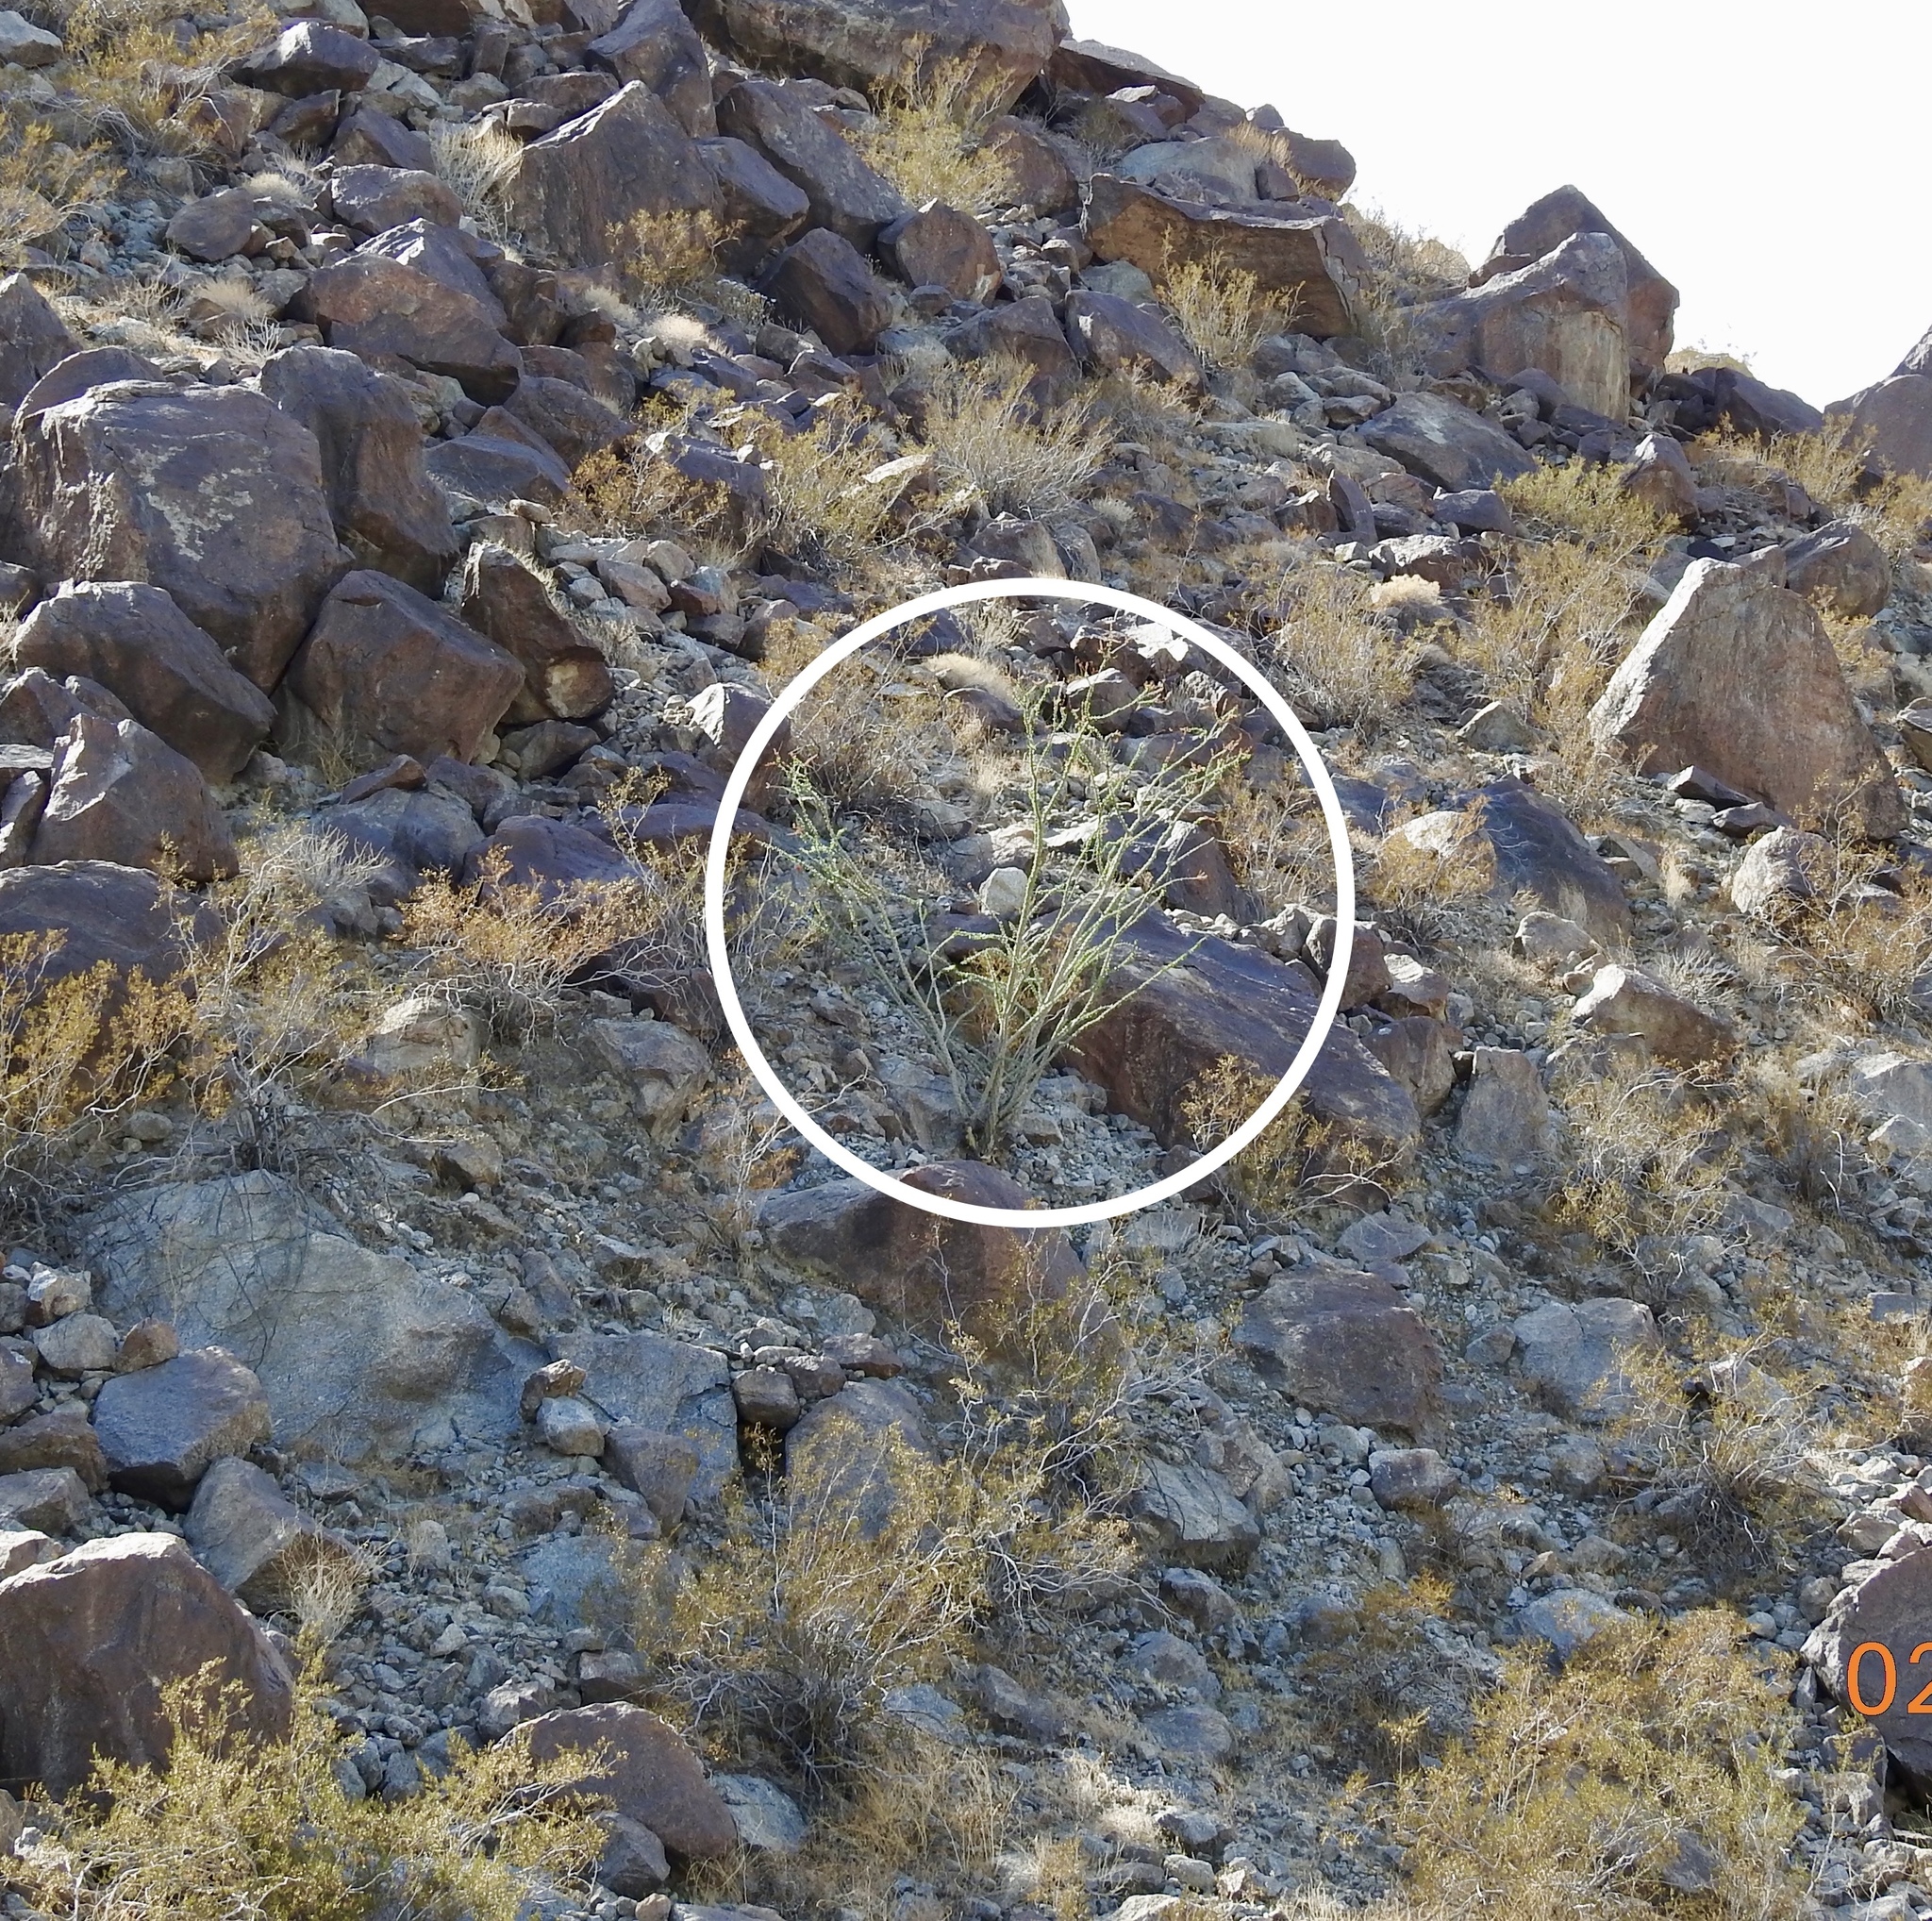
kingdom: Plantae
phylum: Tracheophyta
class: Magnoliopsida
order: Ericales
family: Fouquieriaceae
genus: Fouquieria
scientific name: Fouquieria splendens
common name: Vine-cactus
